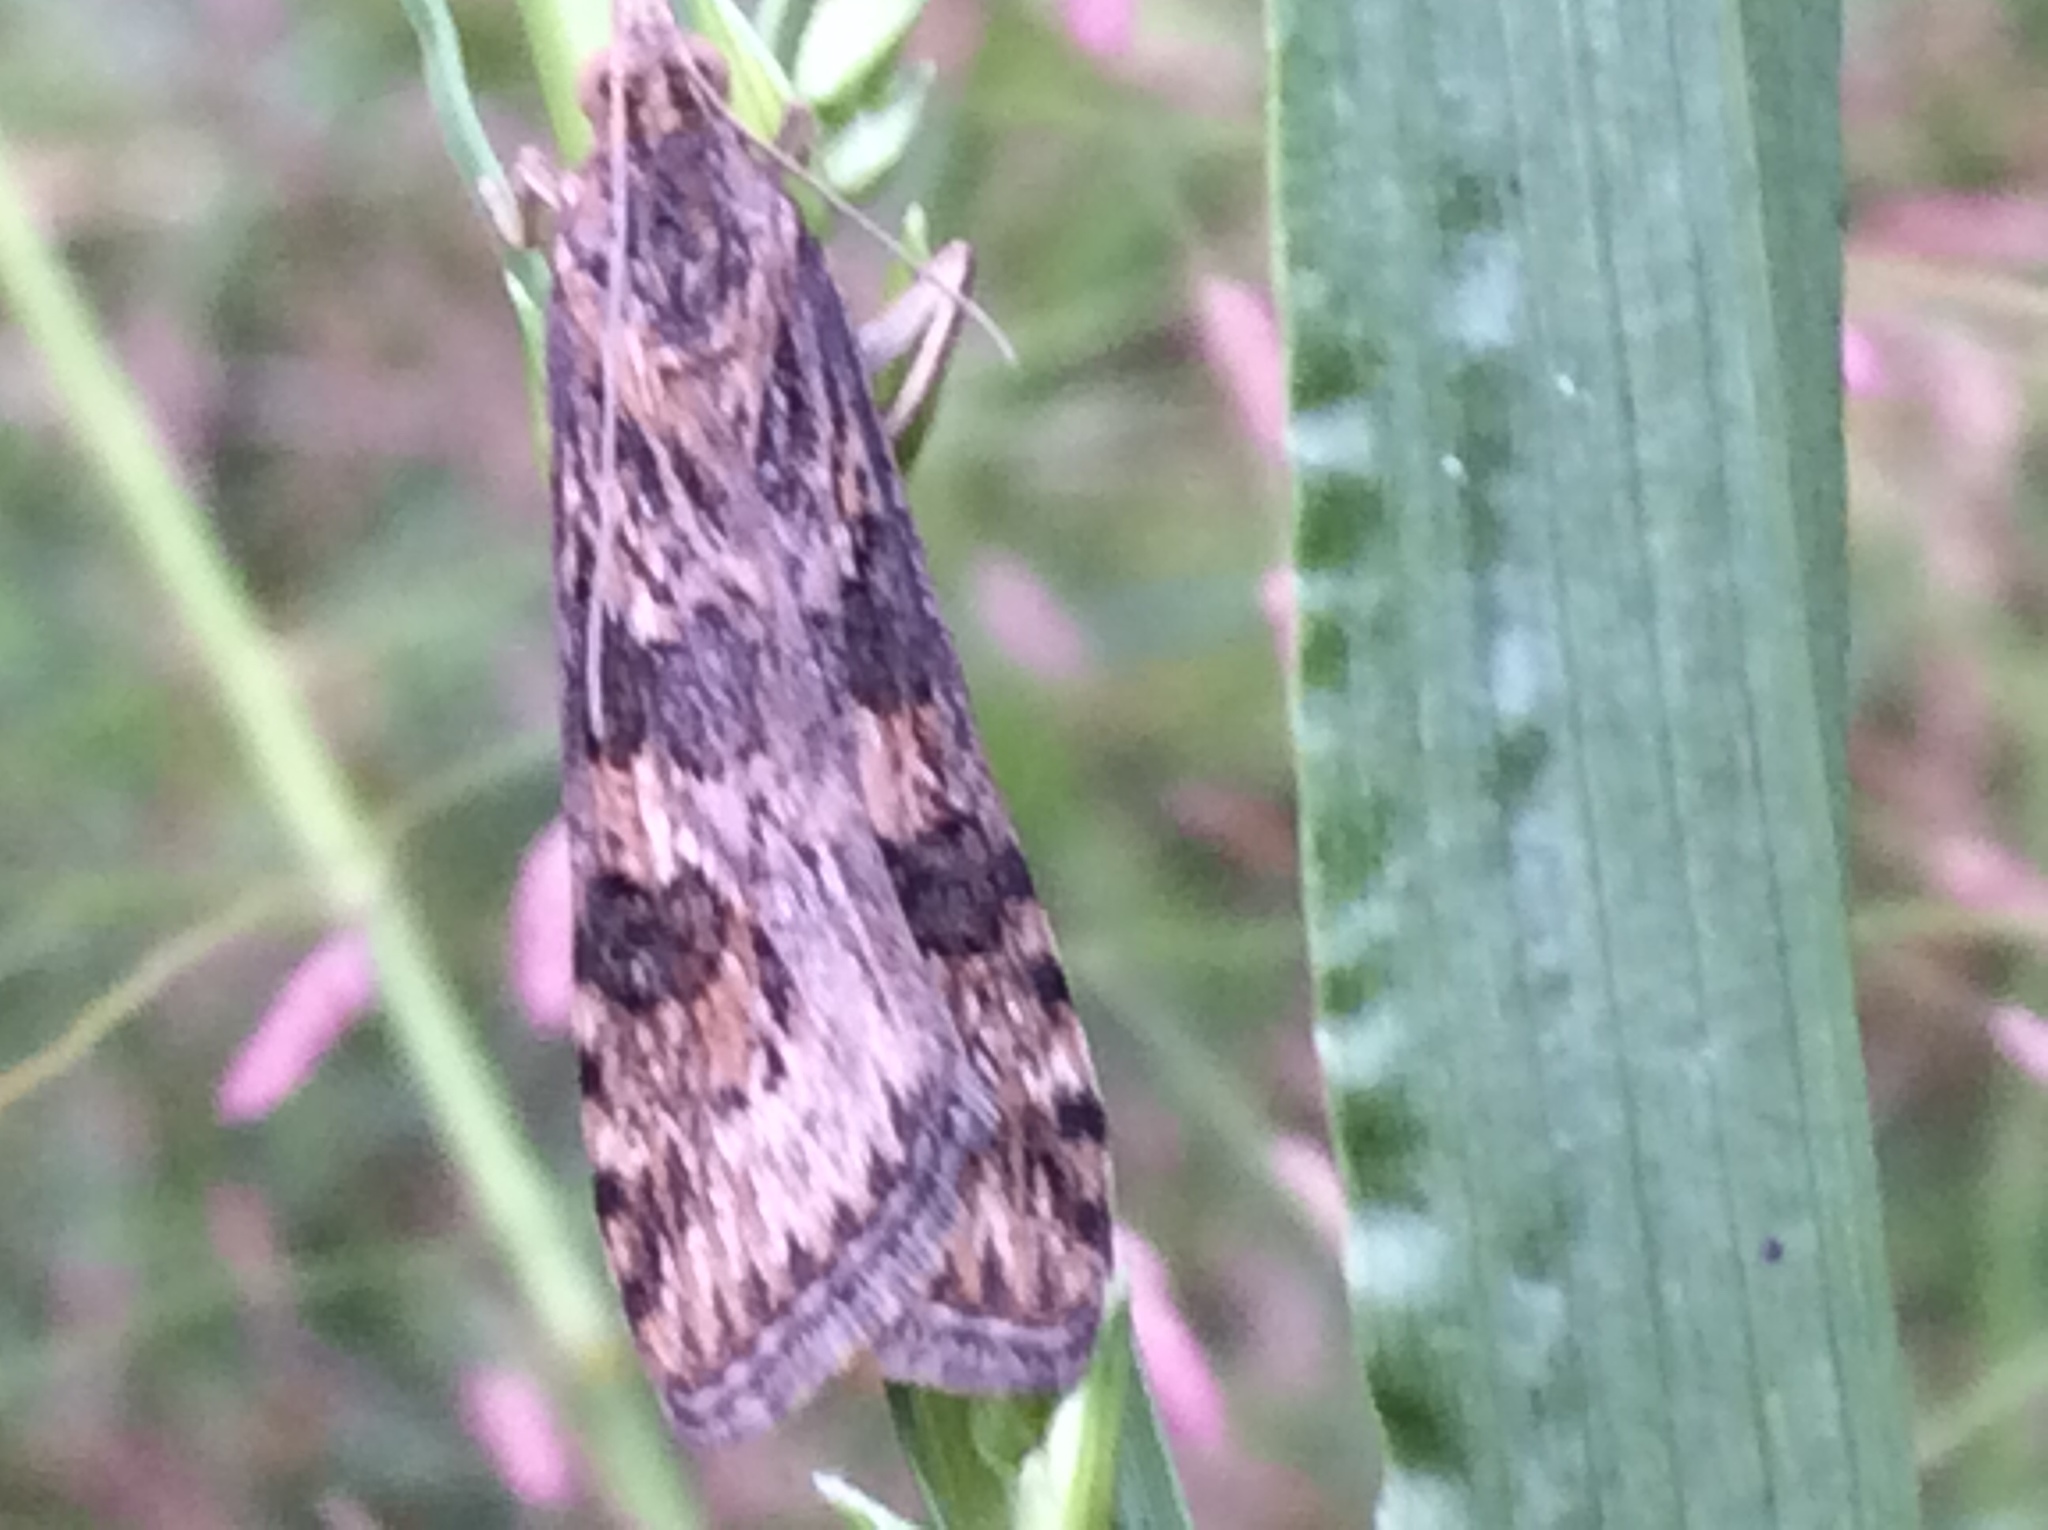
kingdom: Animalia
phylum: Arthropoda
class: Insecta
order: Lepidoptera
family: Crambidae
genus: Nomophila
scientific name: Nomophila nearctica
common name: American rush veneer
